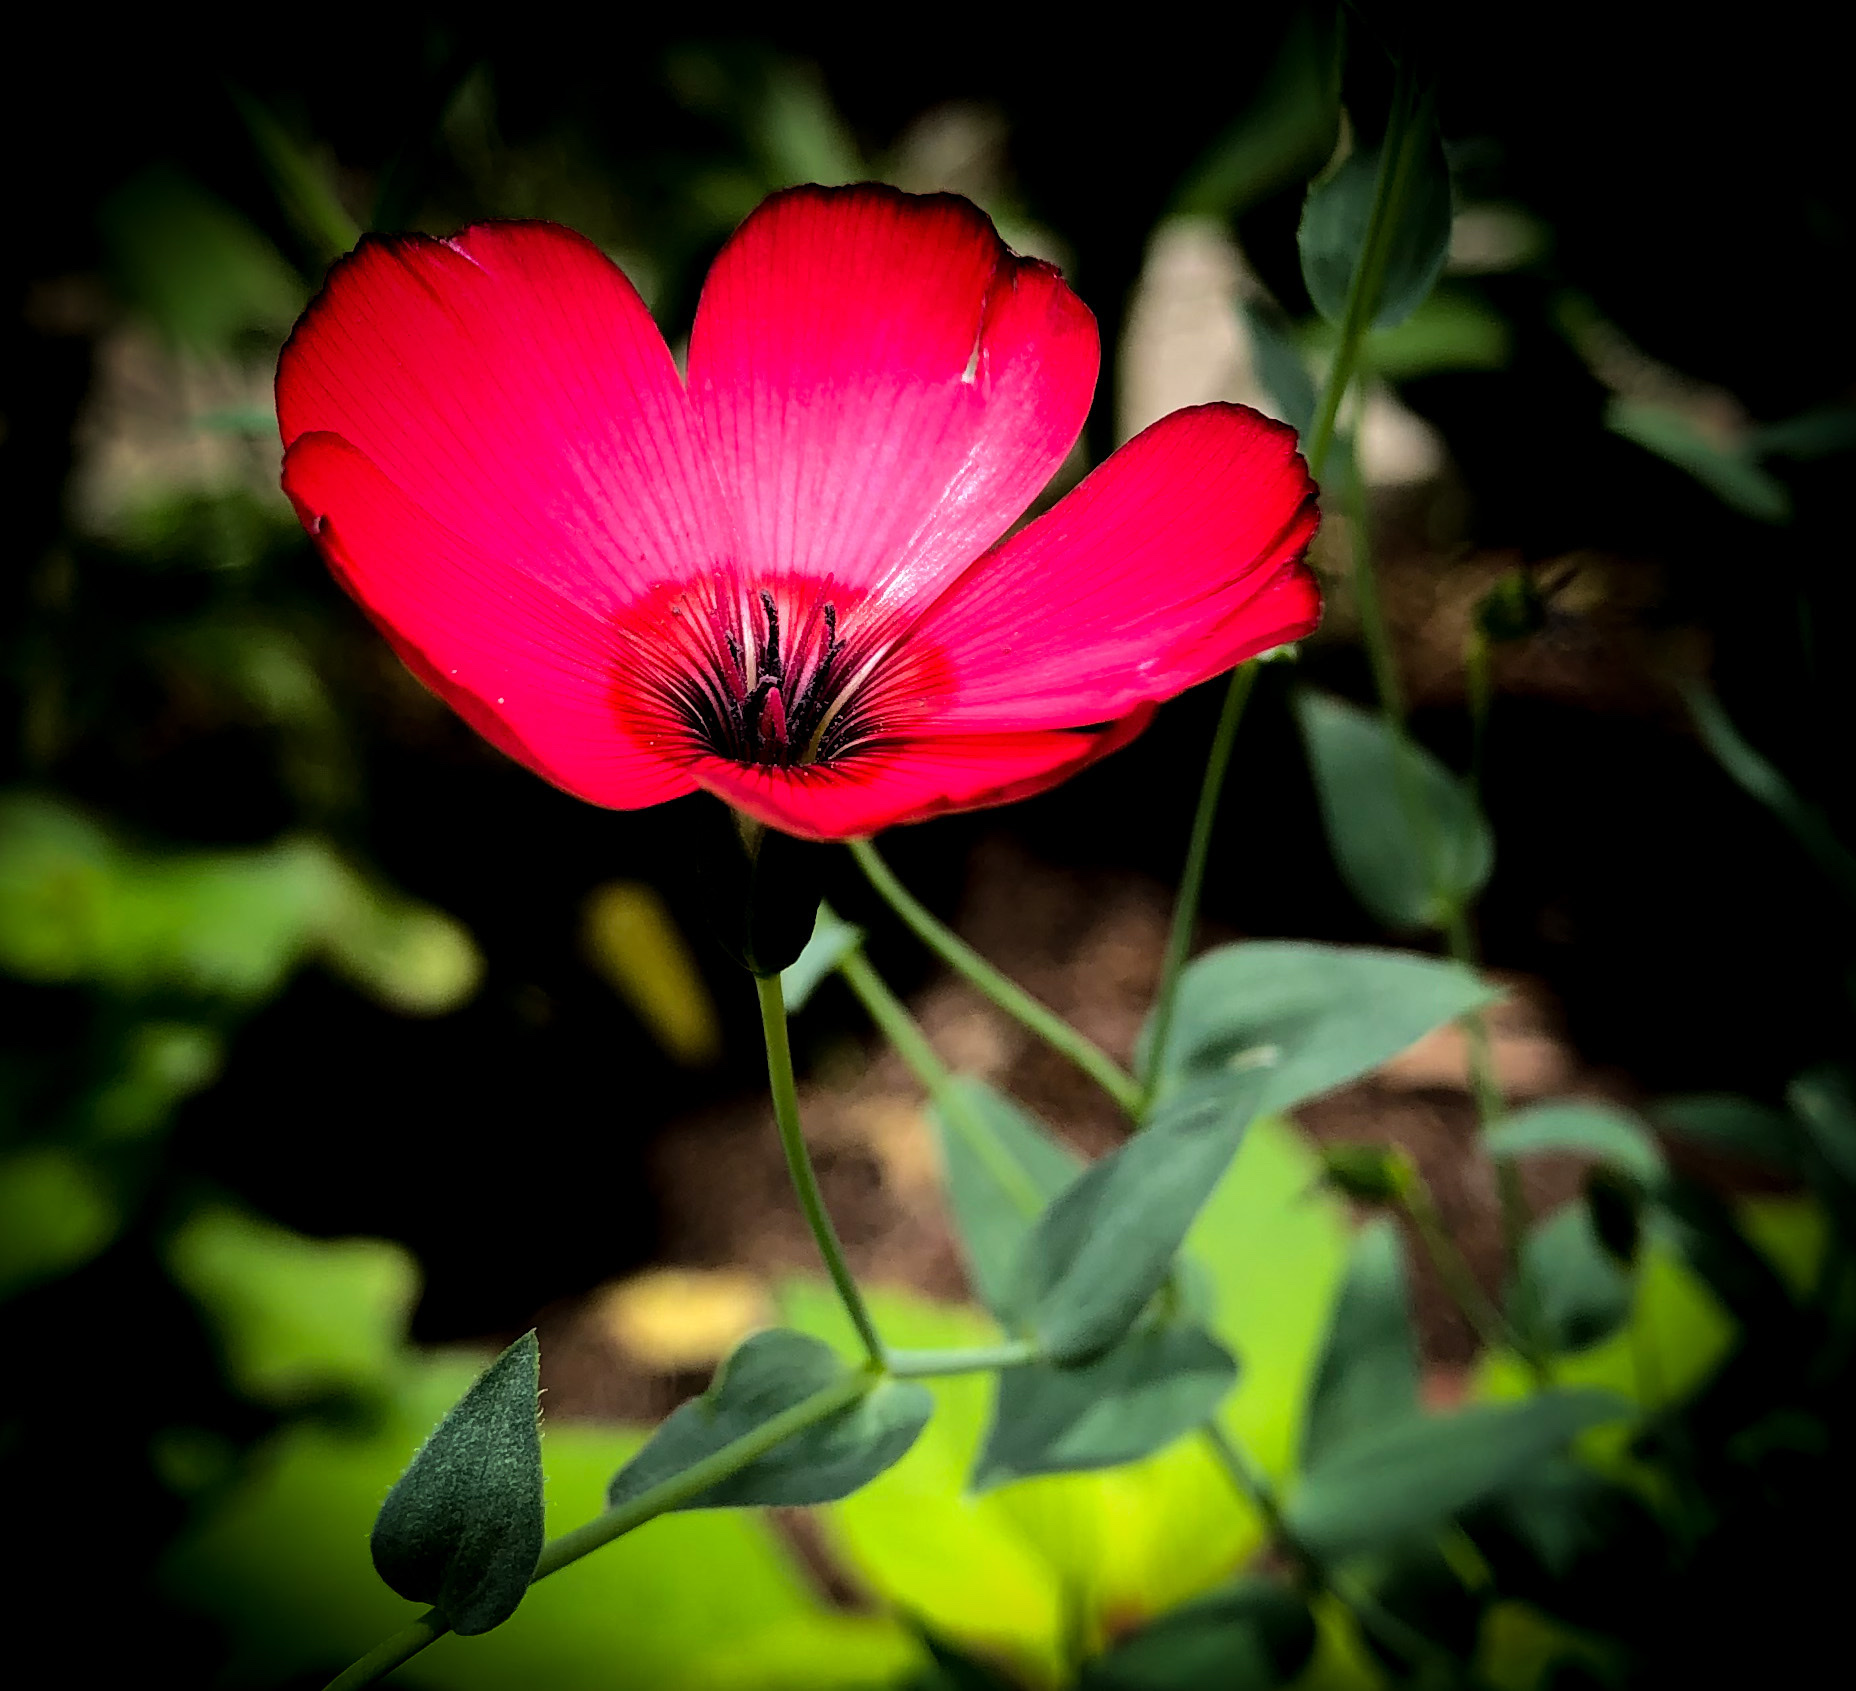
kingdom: Plantae
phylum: Tracheophyta
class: Magnoliopsida
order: Malpighiales
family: Linaceae
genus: Linum
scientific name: Linum grandiflorum
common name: Crimson flax
